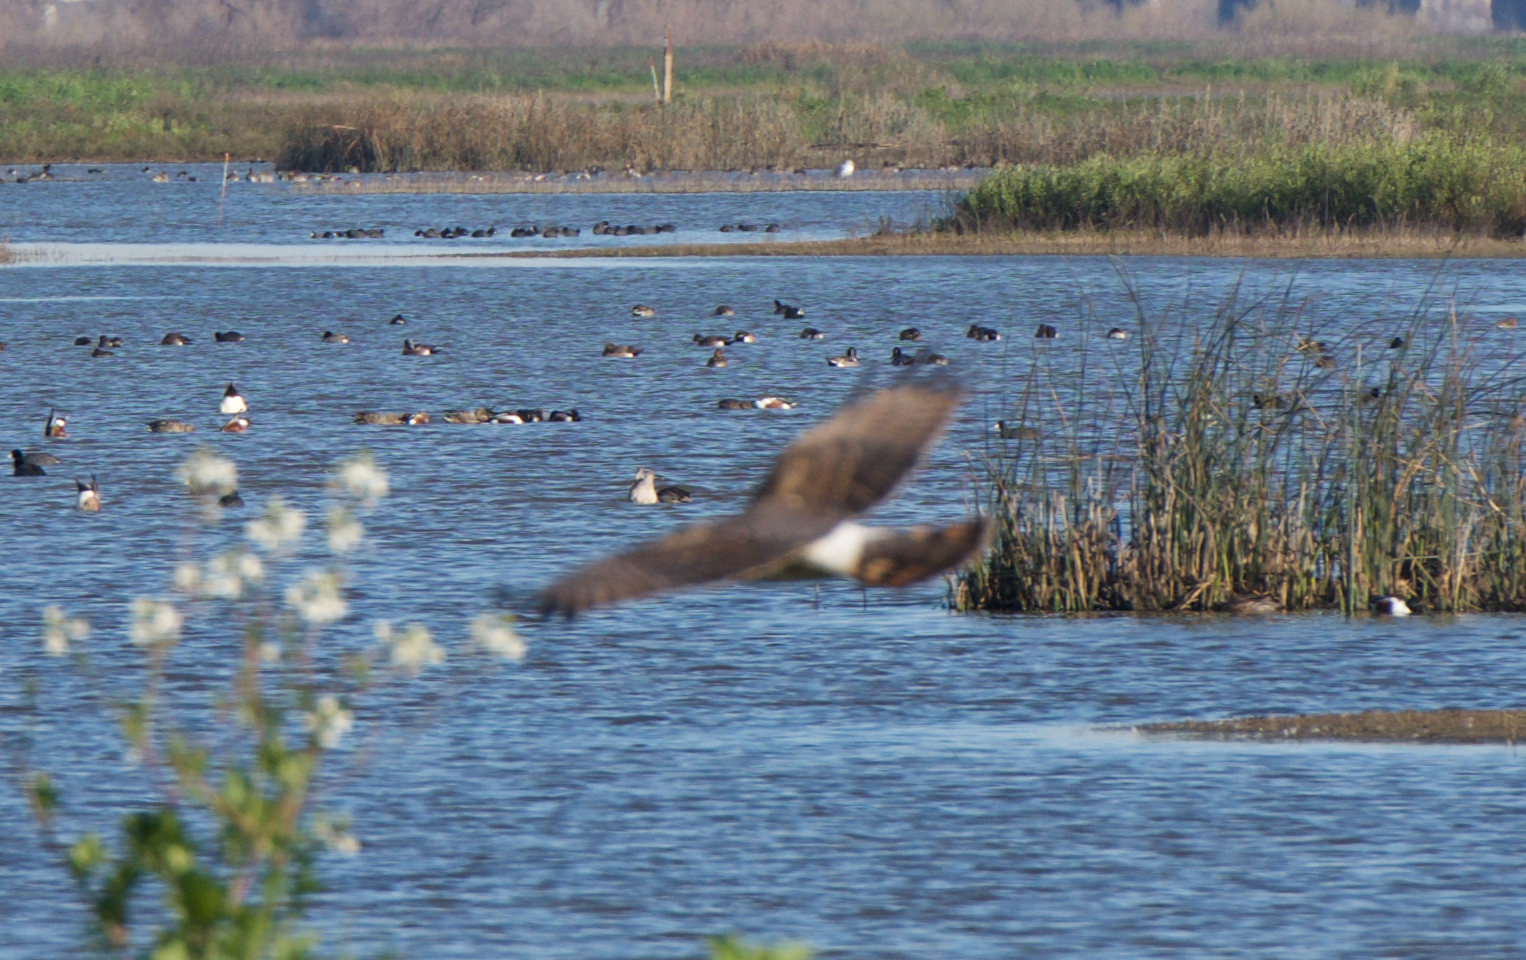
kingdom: Animalia
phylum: Chordata
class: Aves
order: Accipitriformes
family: Accipitridae
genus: Circus
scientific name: Circus cyaneus
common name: Hen harrier
